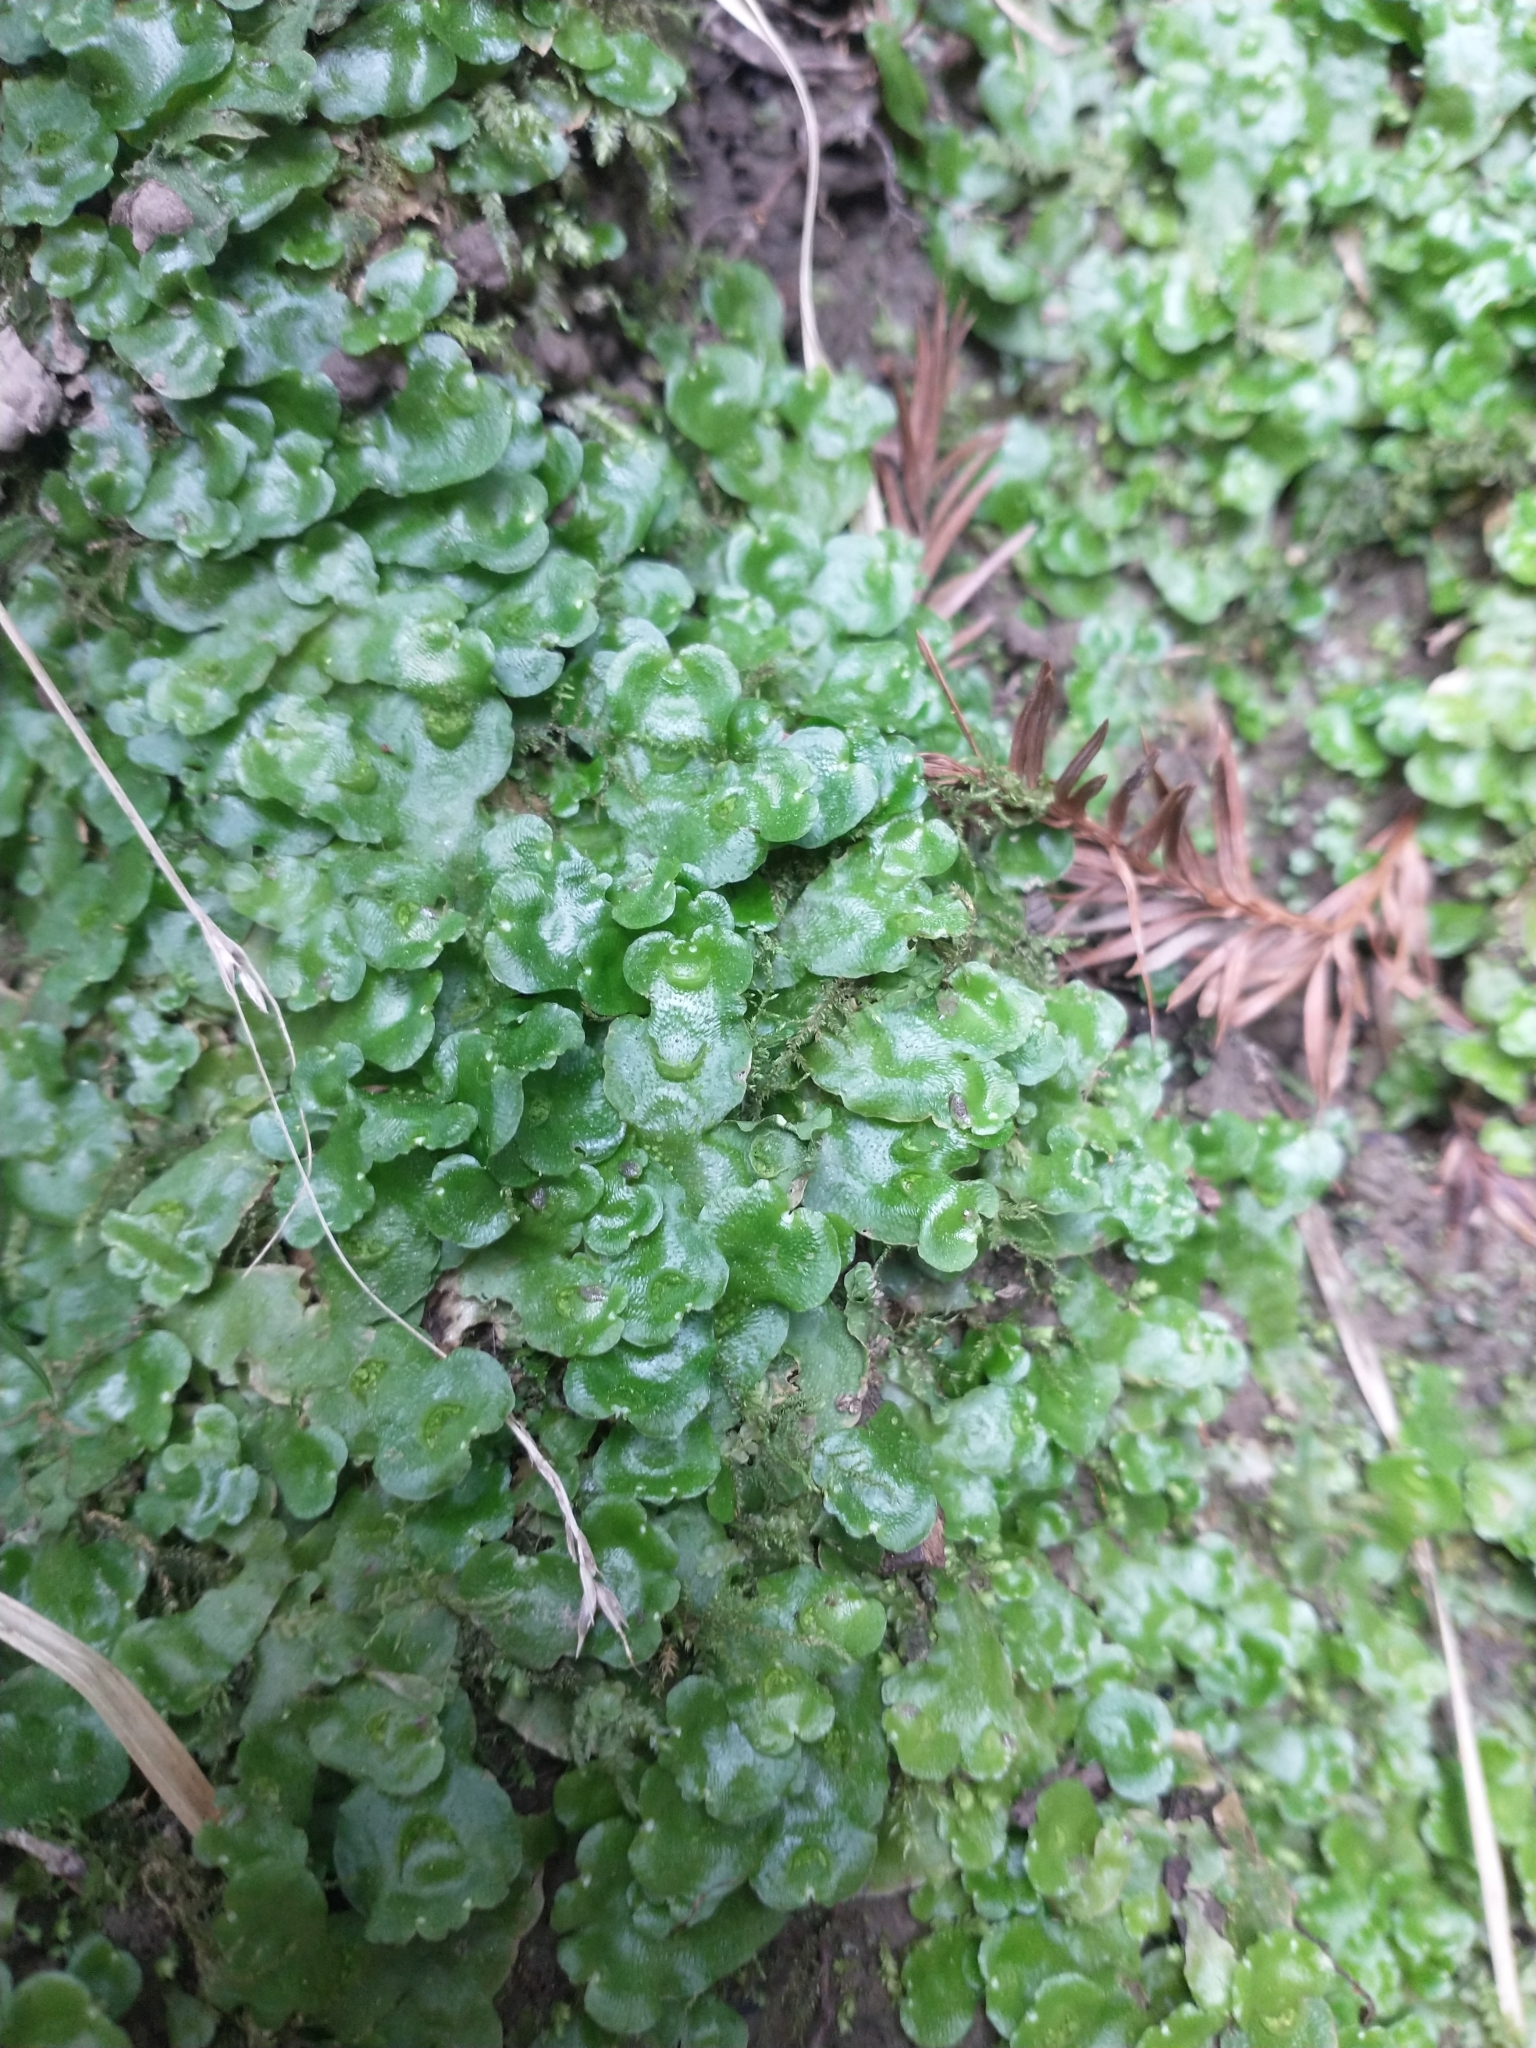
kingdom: Plantae
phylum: Marchantiophyta
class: Marchantiopsida
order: Lunulariales
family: Lunulariaceae
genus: Lunularia
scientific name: Lunularia cruciata
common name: Crescent-cup liverwort
